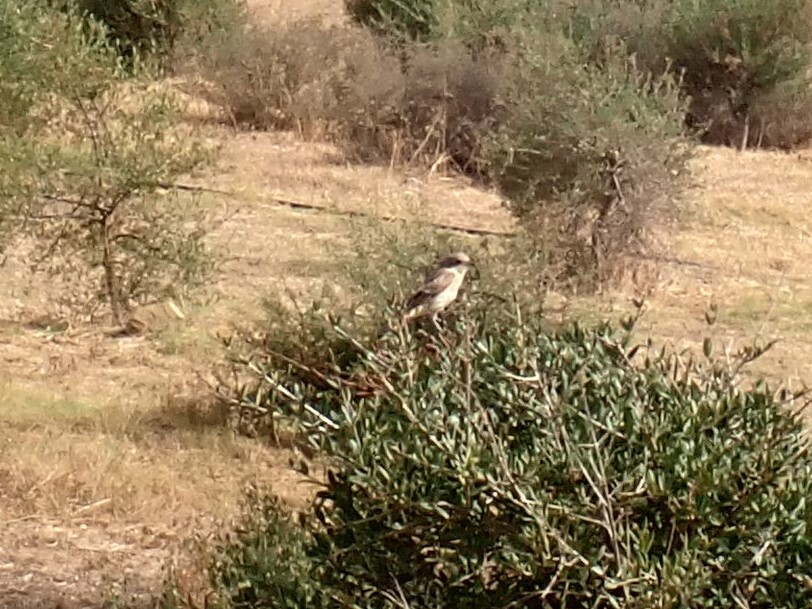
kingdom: Animalia
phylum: Chordata
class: Aves
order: Passeriformes
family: Laniidae
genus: Lanius
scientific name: Lanius senator
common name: Woodchat shrike
